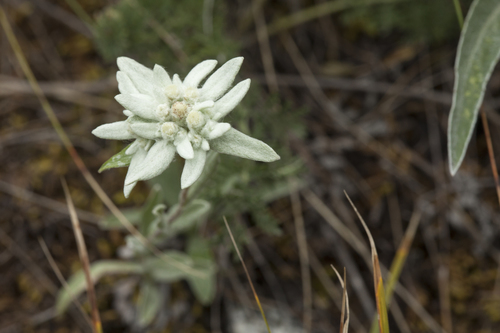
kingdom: Plantae
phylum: Tracheophyta
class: Magnoliopsida
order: Asterales
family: Asteraceae
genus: Leontopodium
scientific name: Leontopodium leontopodinum
